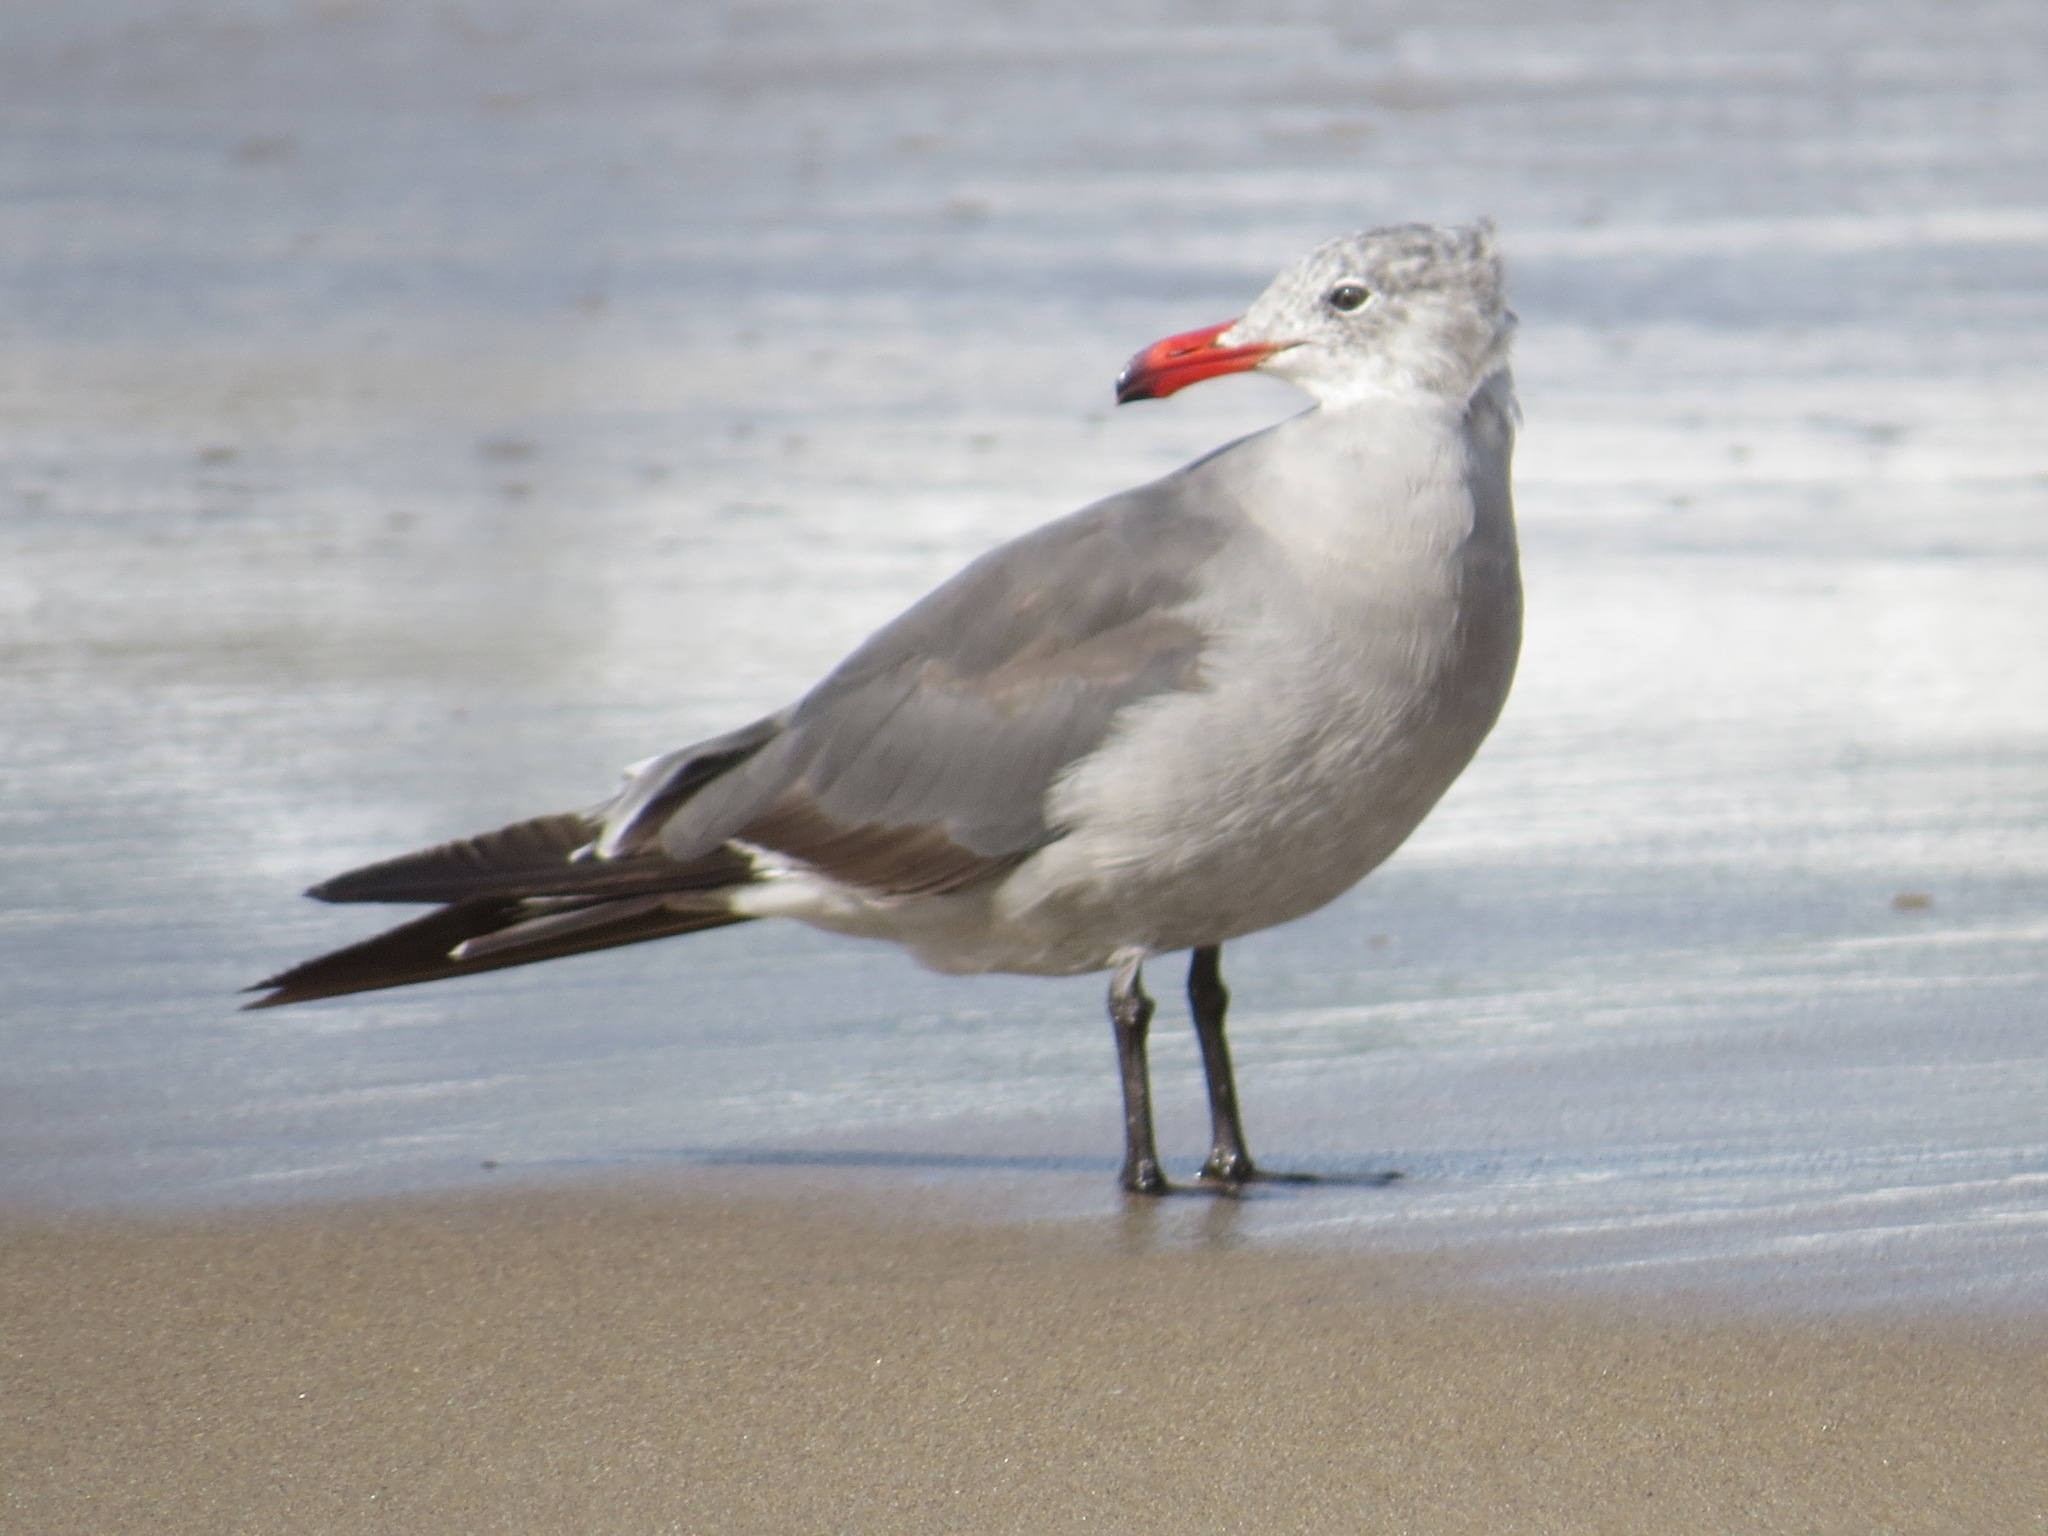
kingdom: Animalia
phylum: Chordata
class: Aves
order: Charadriiformes
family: Laridae
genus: Larus
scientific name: Larus heermanni
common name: Heermann's gull
